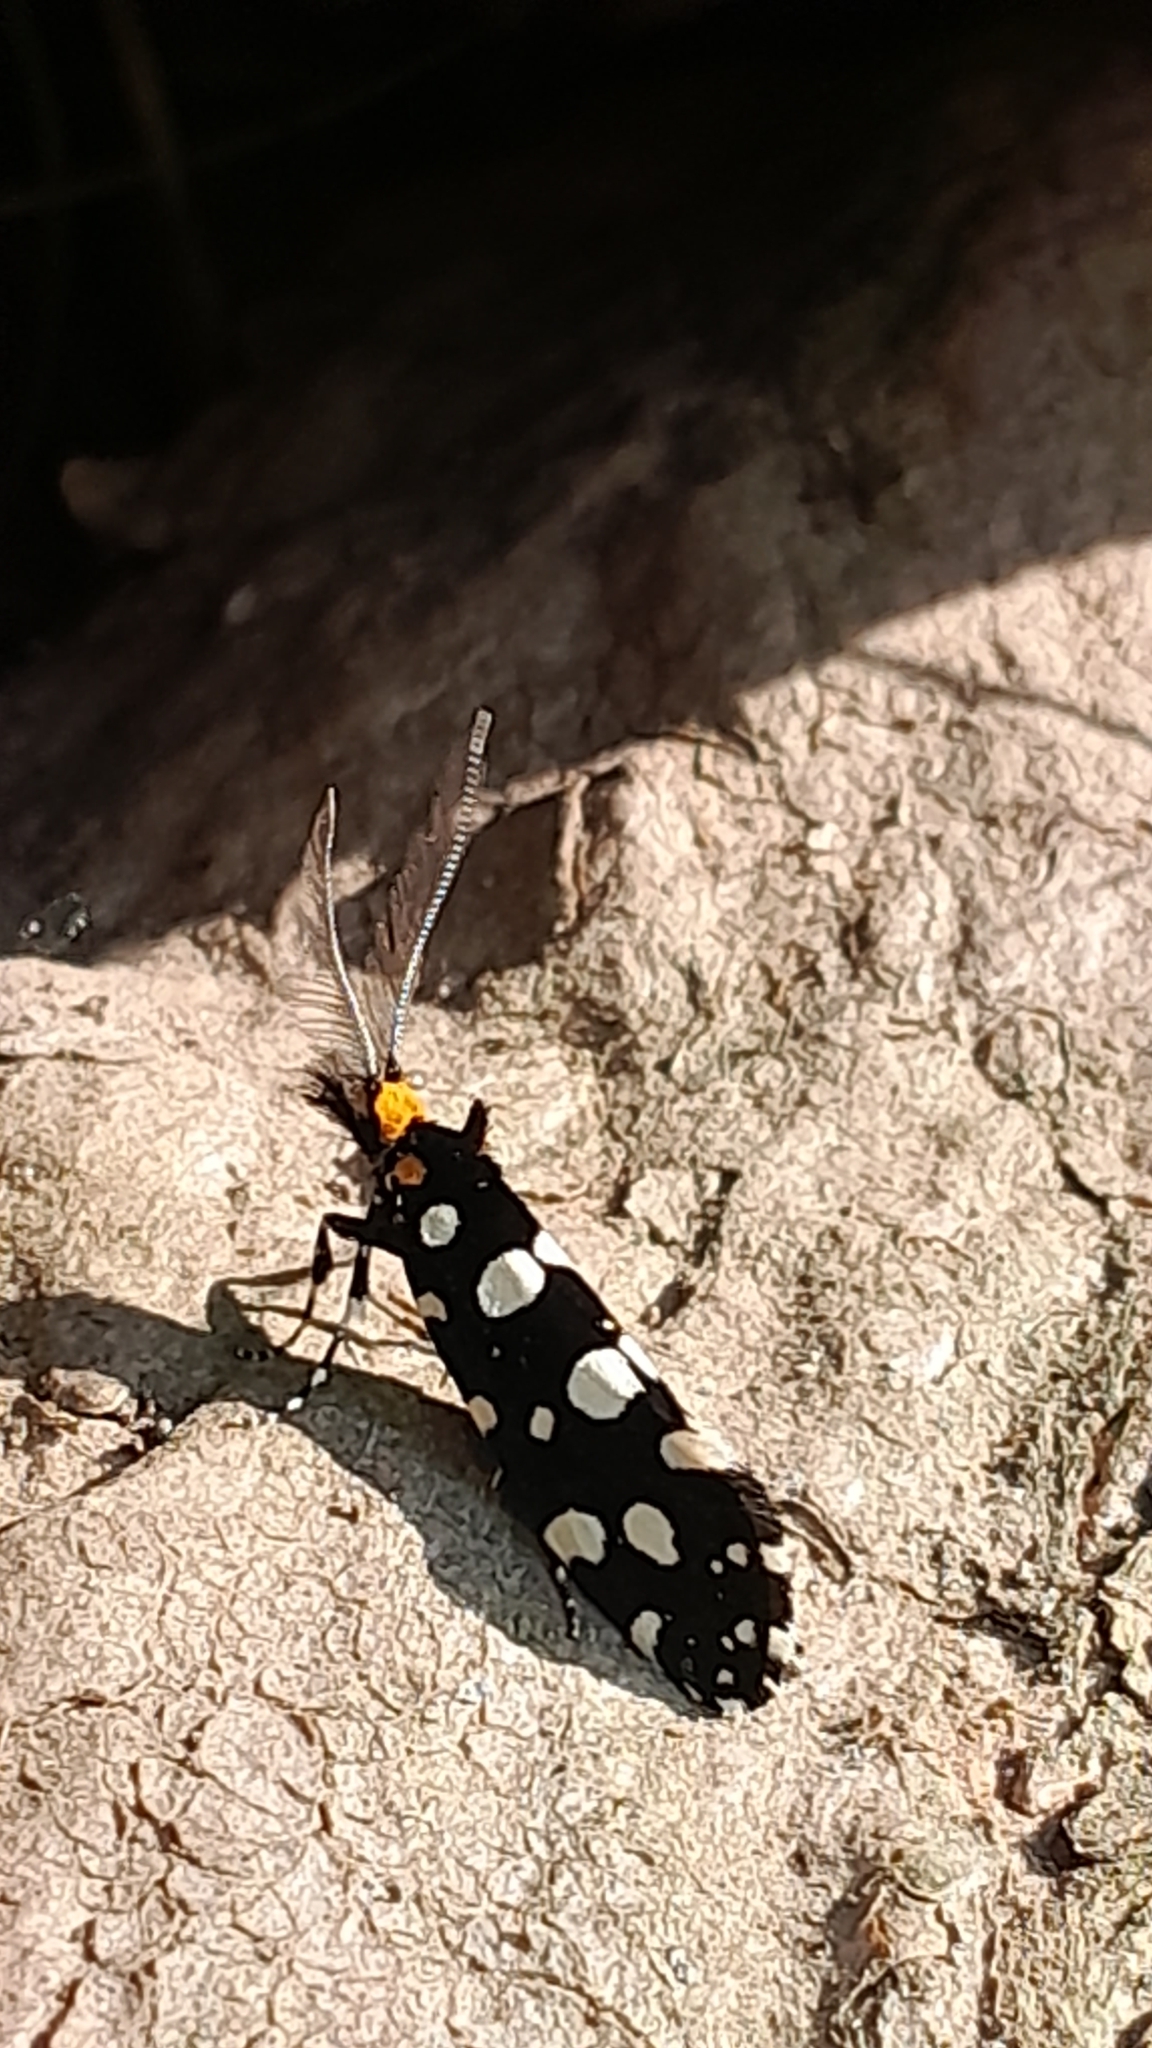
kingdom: Animalia
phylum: Arthropoda
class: Insecta
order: Lepidoptera
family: Tineidae
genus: Euplocamus
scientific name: Euplocamus anthracinalis
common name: Black clothes
